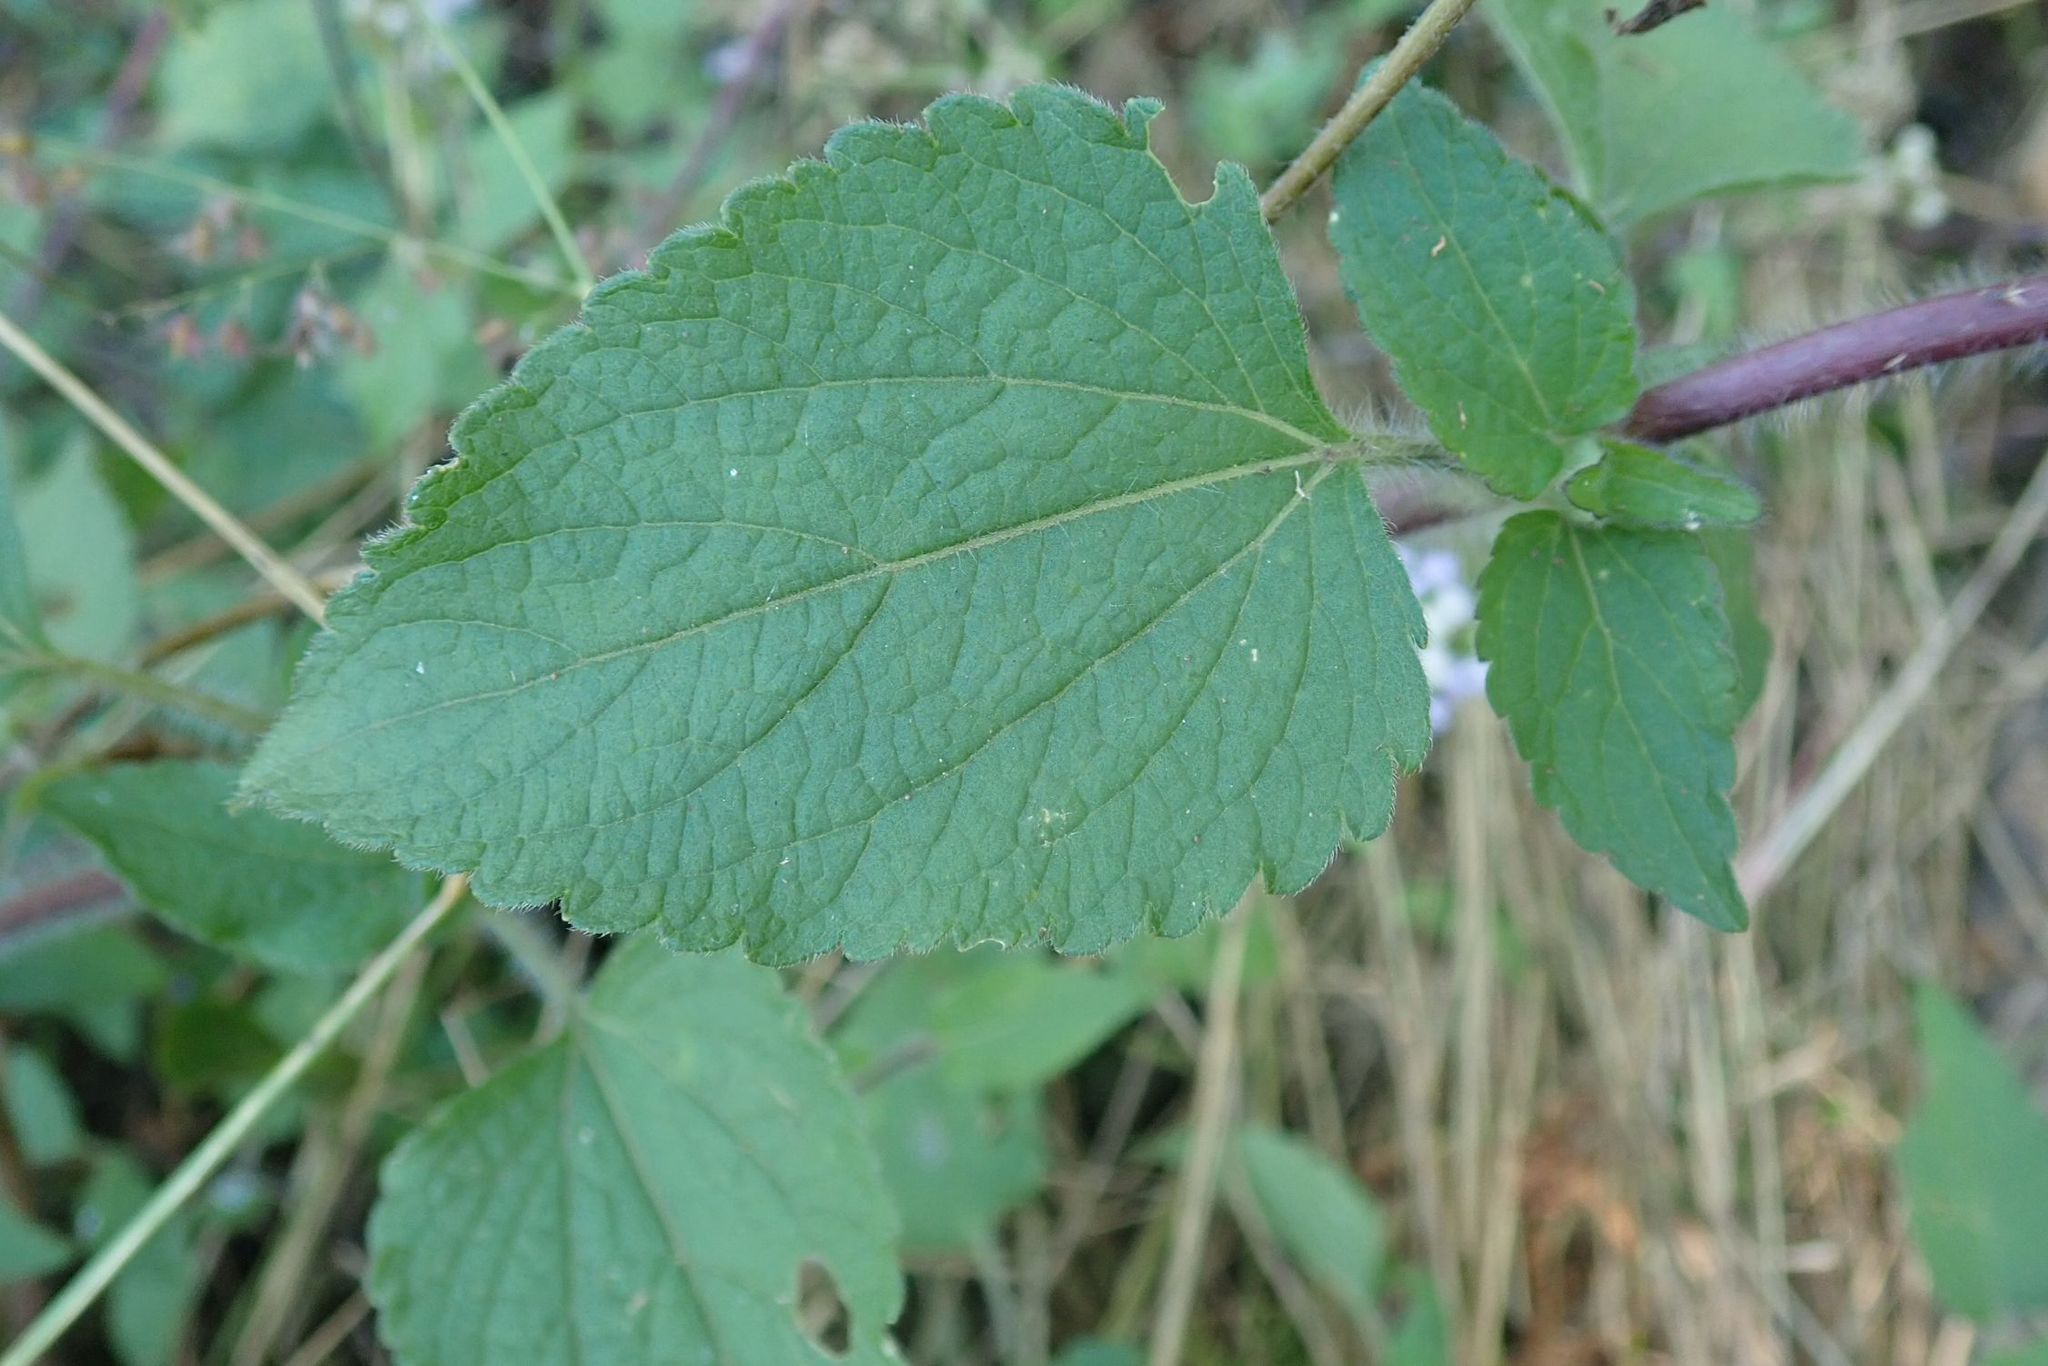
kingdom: Plantae
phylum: Tracheophyta
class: Magnoliopsida
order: Asterales
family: Asteraceae
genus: Ageratum
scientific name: Ageratum houstonianum
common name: Bluemink
